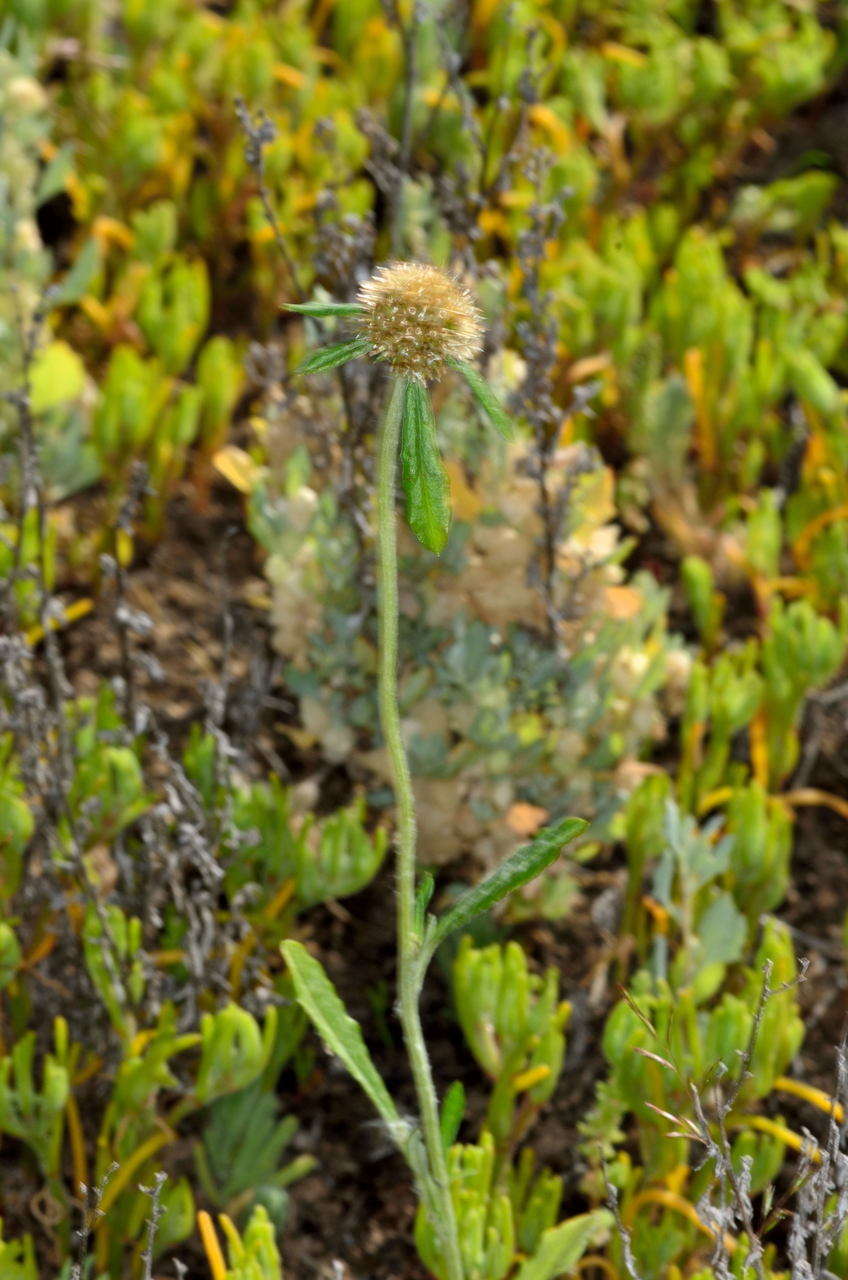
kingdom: Plantae
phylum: Tracheophyta
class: Magnoliopsida
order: Asterales
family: Asteraceae
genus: Euchiton
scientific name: Euchiton sphaericus
